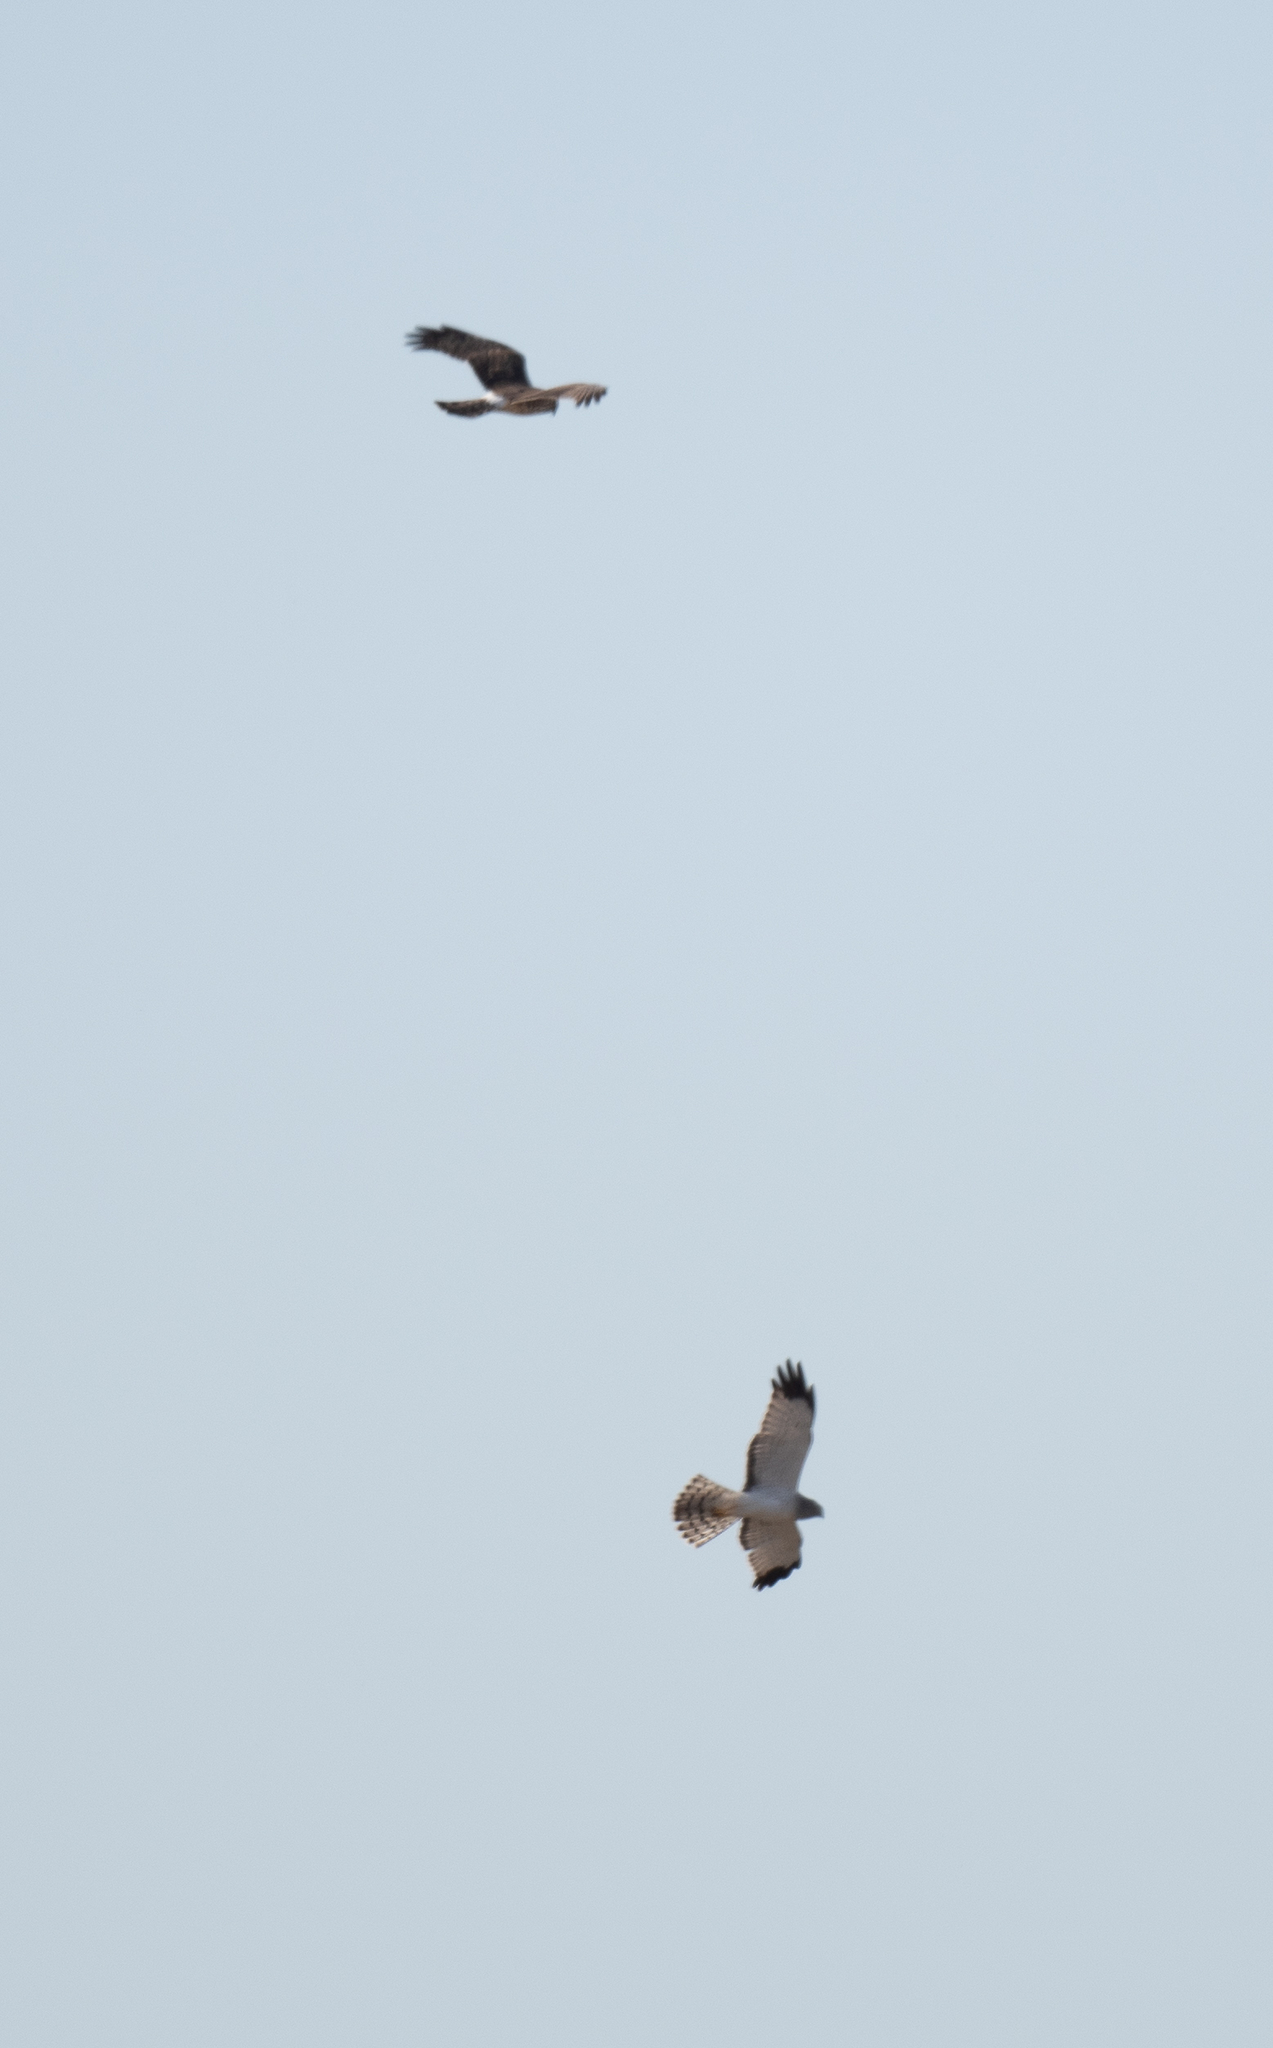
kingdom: Animalia
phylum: Chordata
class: Aves
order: Accipitriformes
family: Accipitridae
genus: Circus
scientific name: Circus cyaneus
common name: Hen harrier
